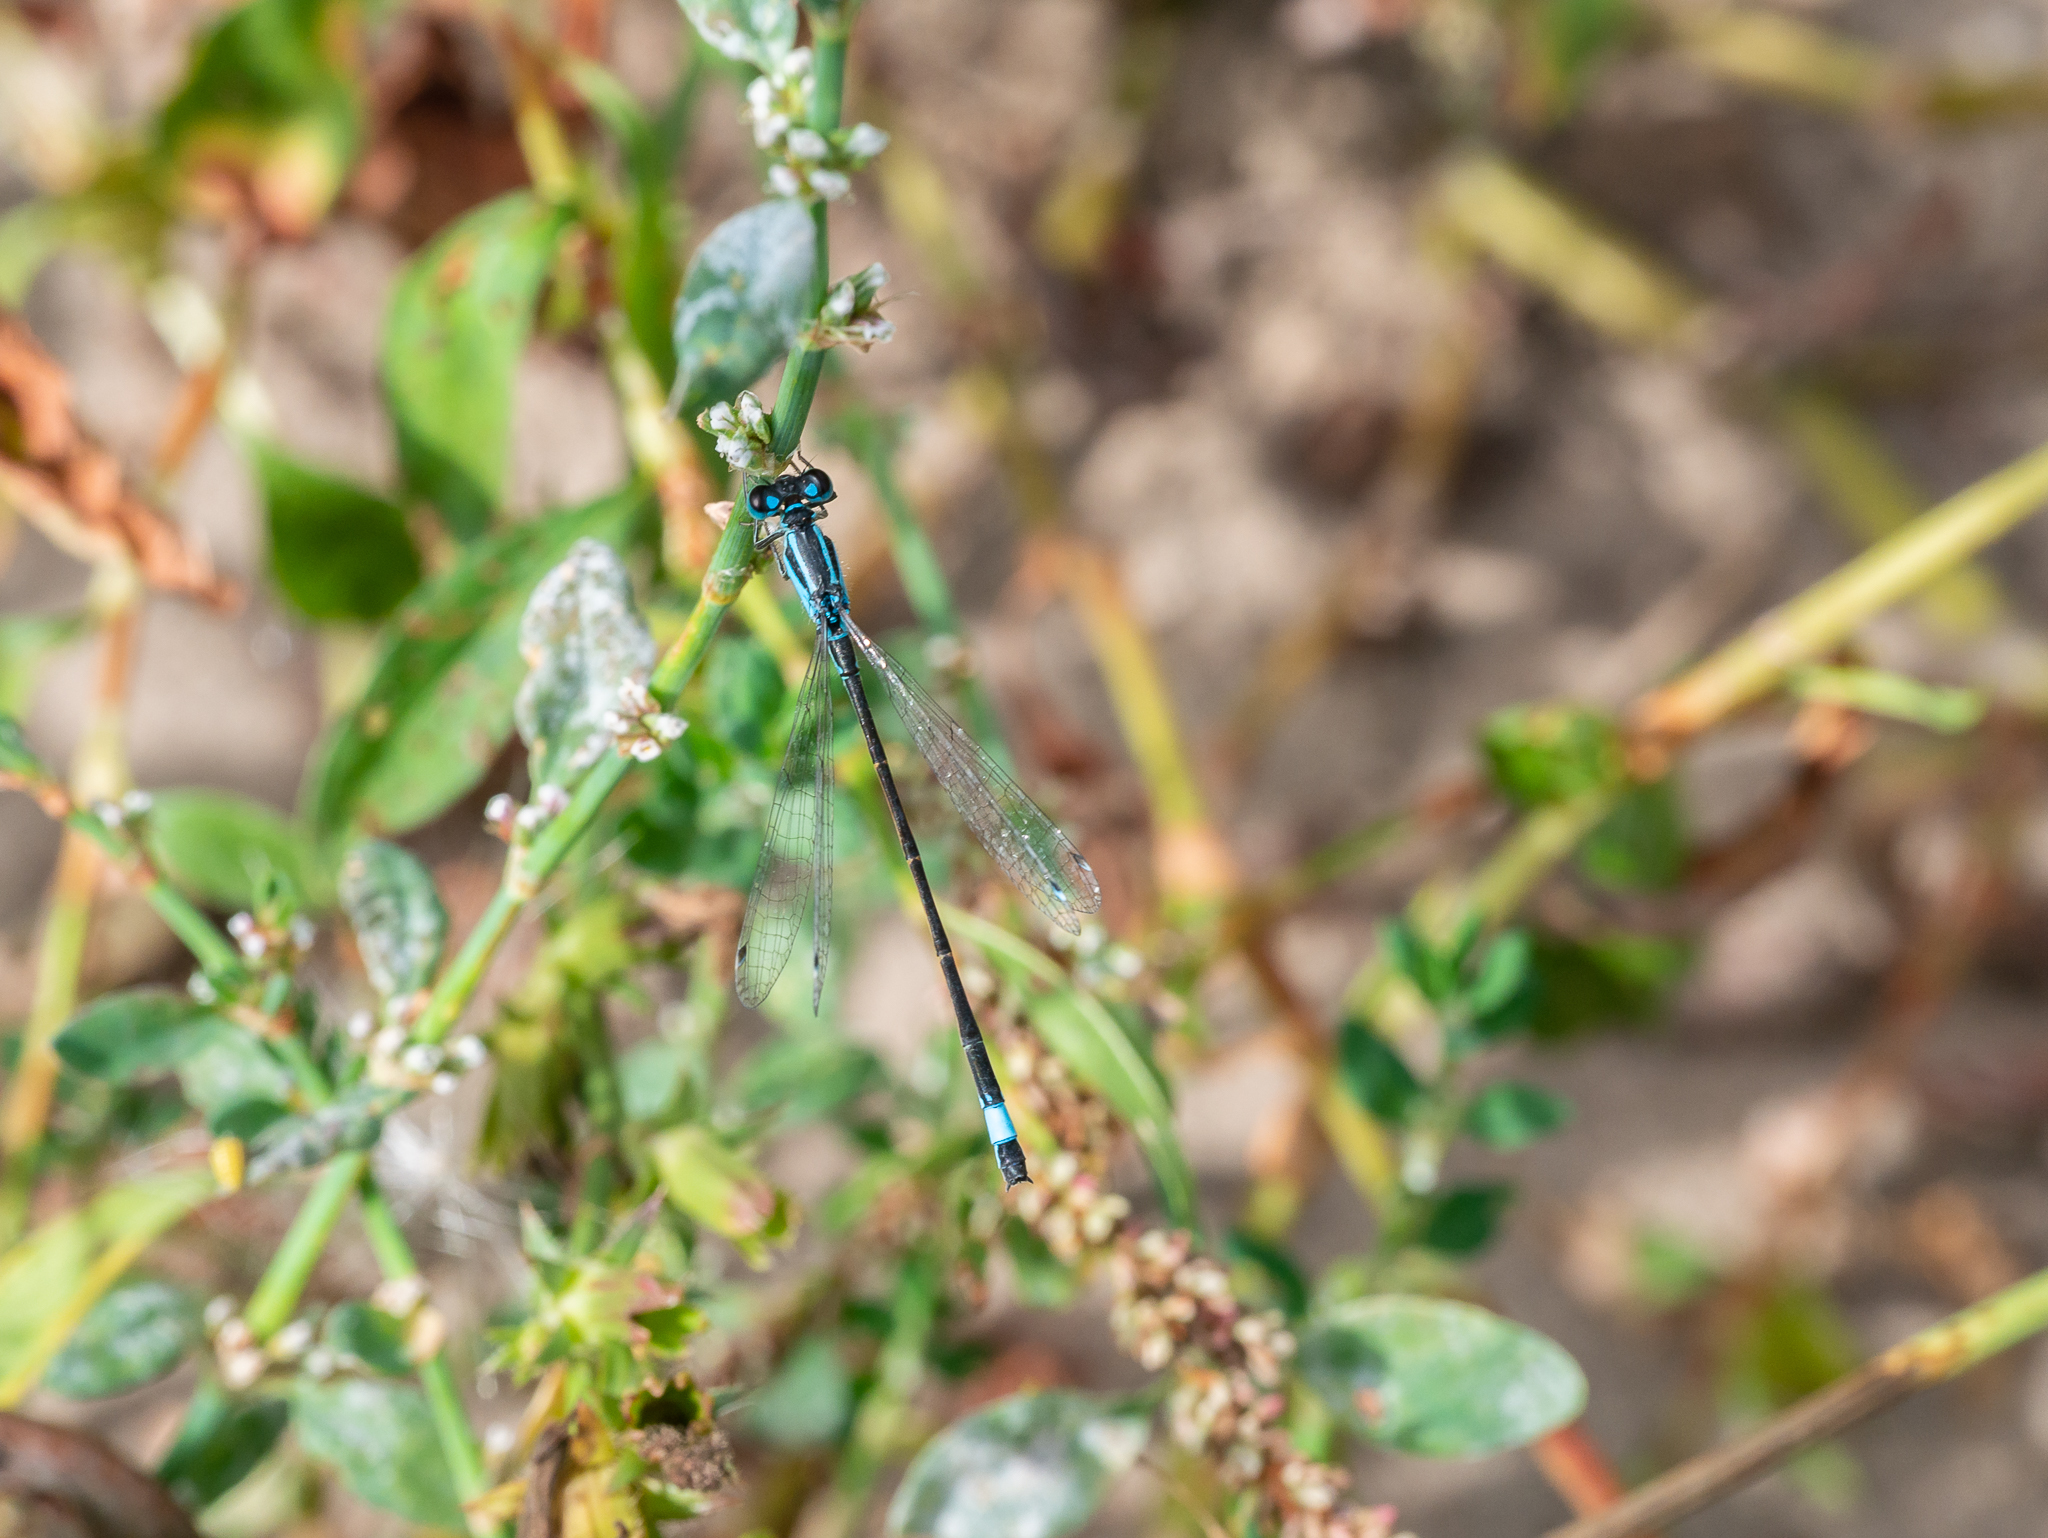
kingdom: Animalia
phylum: Arthropoda
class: Insecta
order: Odonata
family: Coenagrionidae
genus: Ischnura
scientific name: Ischnura elegans
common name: Blue-tailed damselfly
